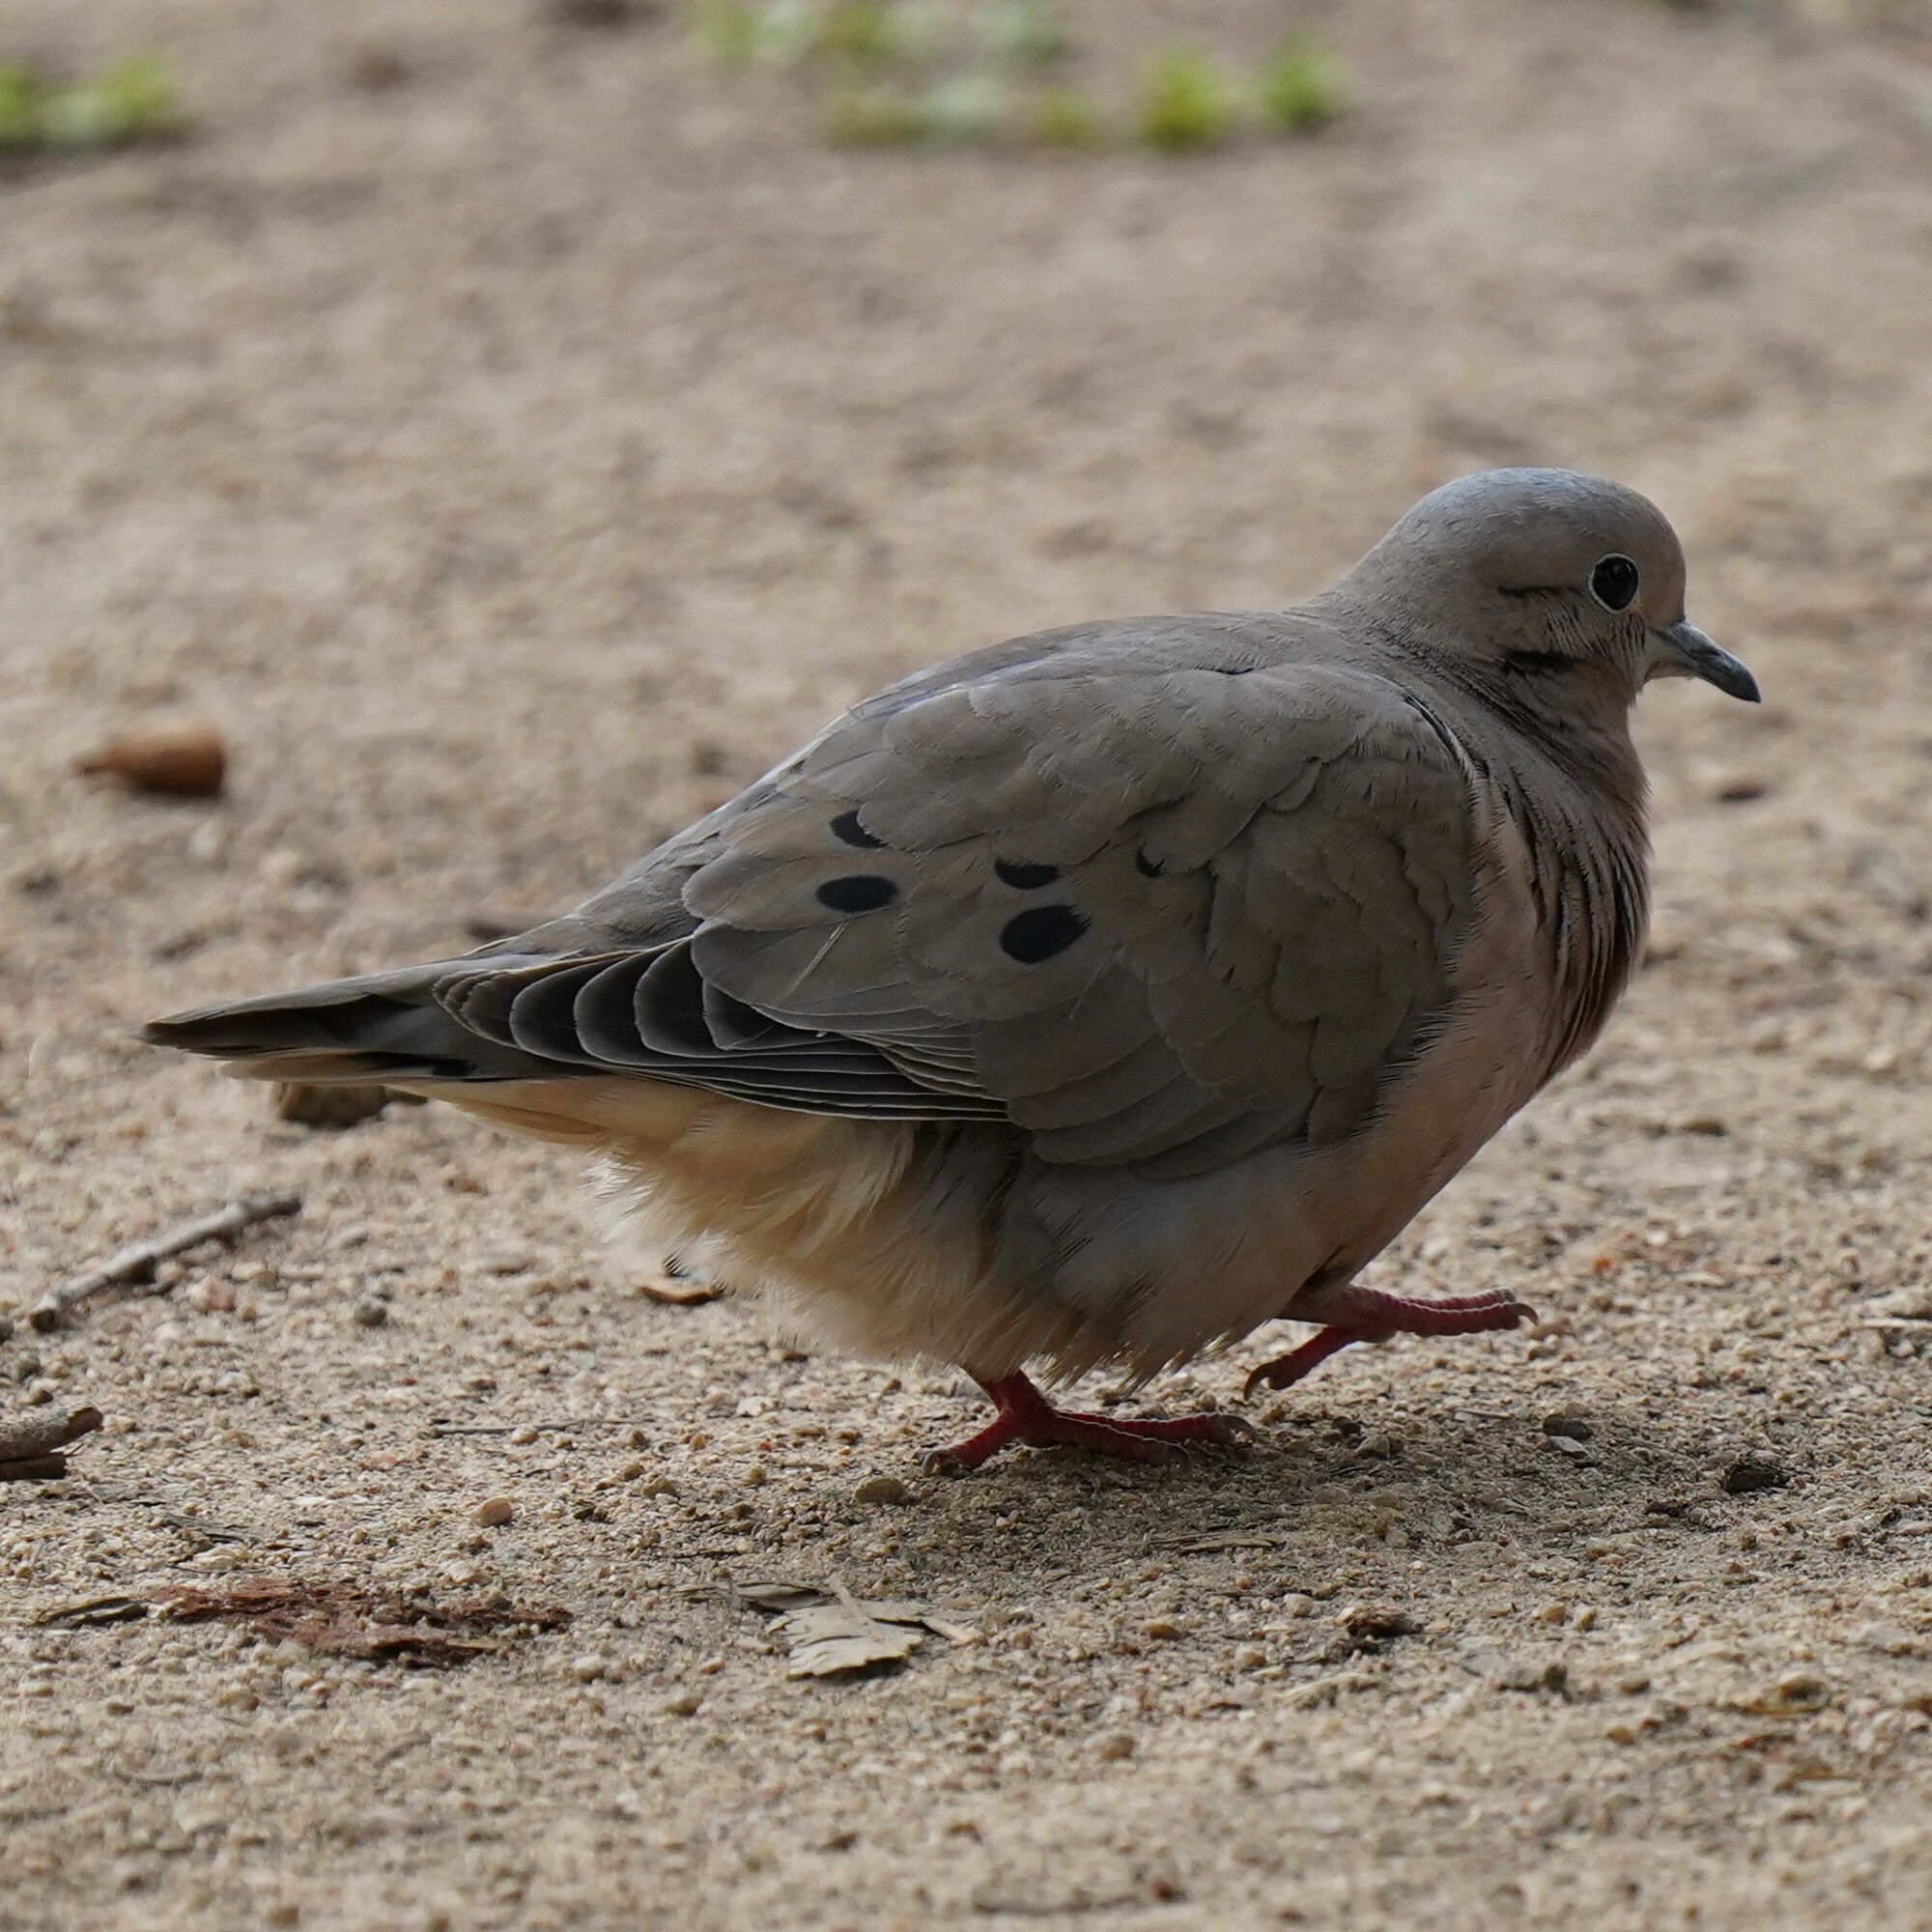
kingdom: Animalia
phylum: Chordata
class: Aves
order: Columbiformes
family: Columbidae
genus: Zenaida
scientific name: Zenaida auriculata
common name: Eared dove
